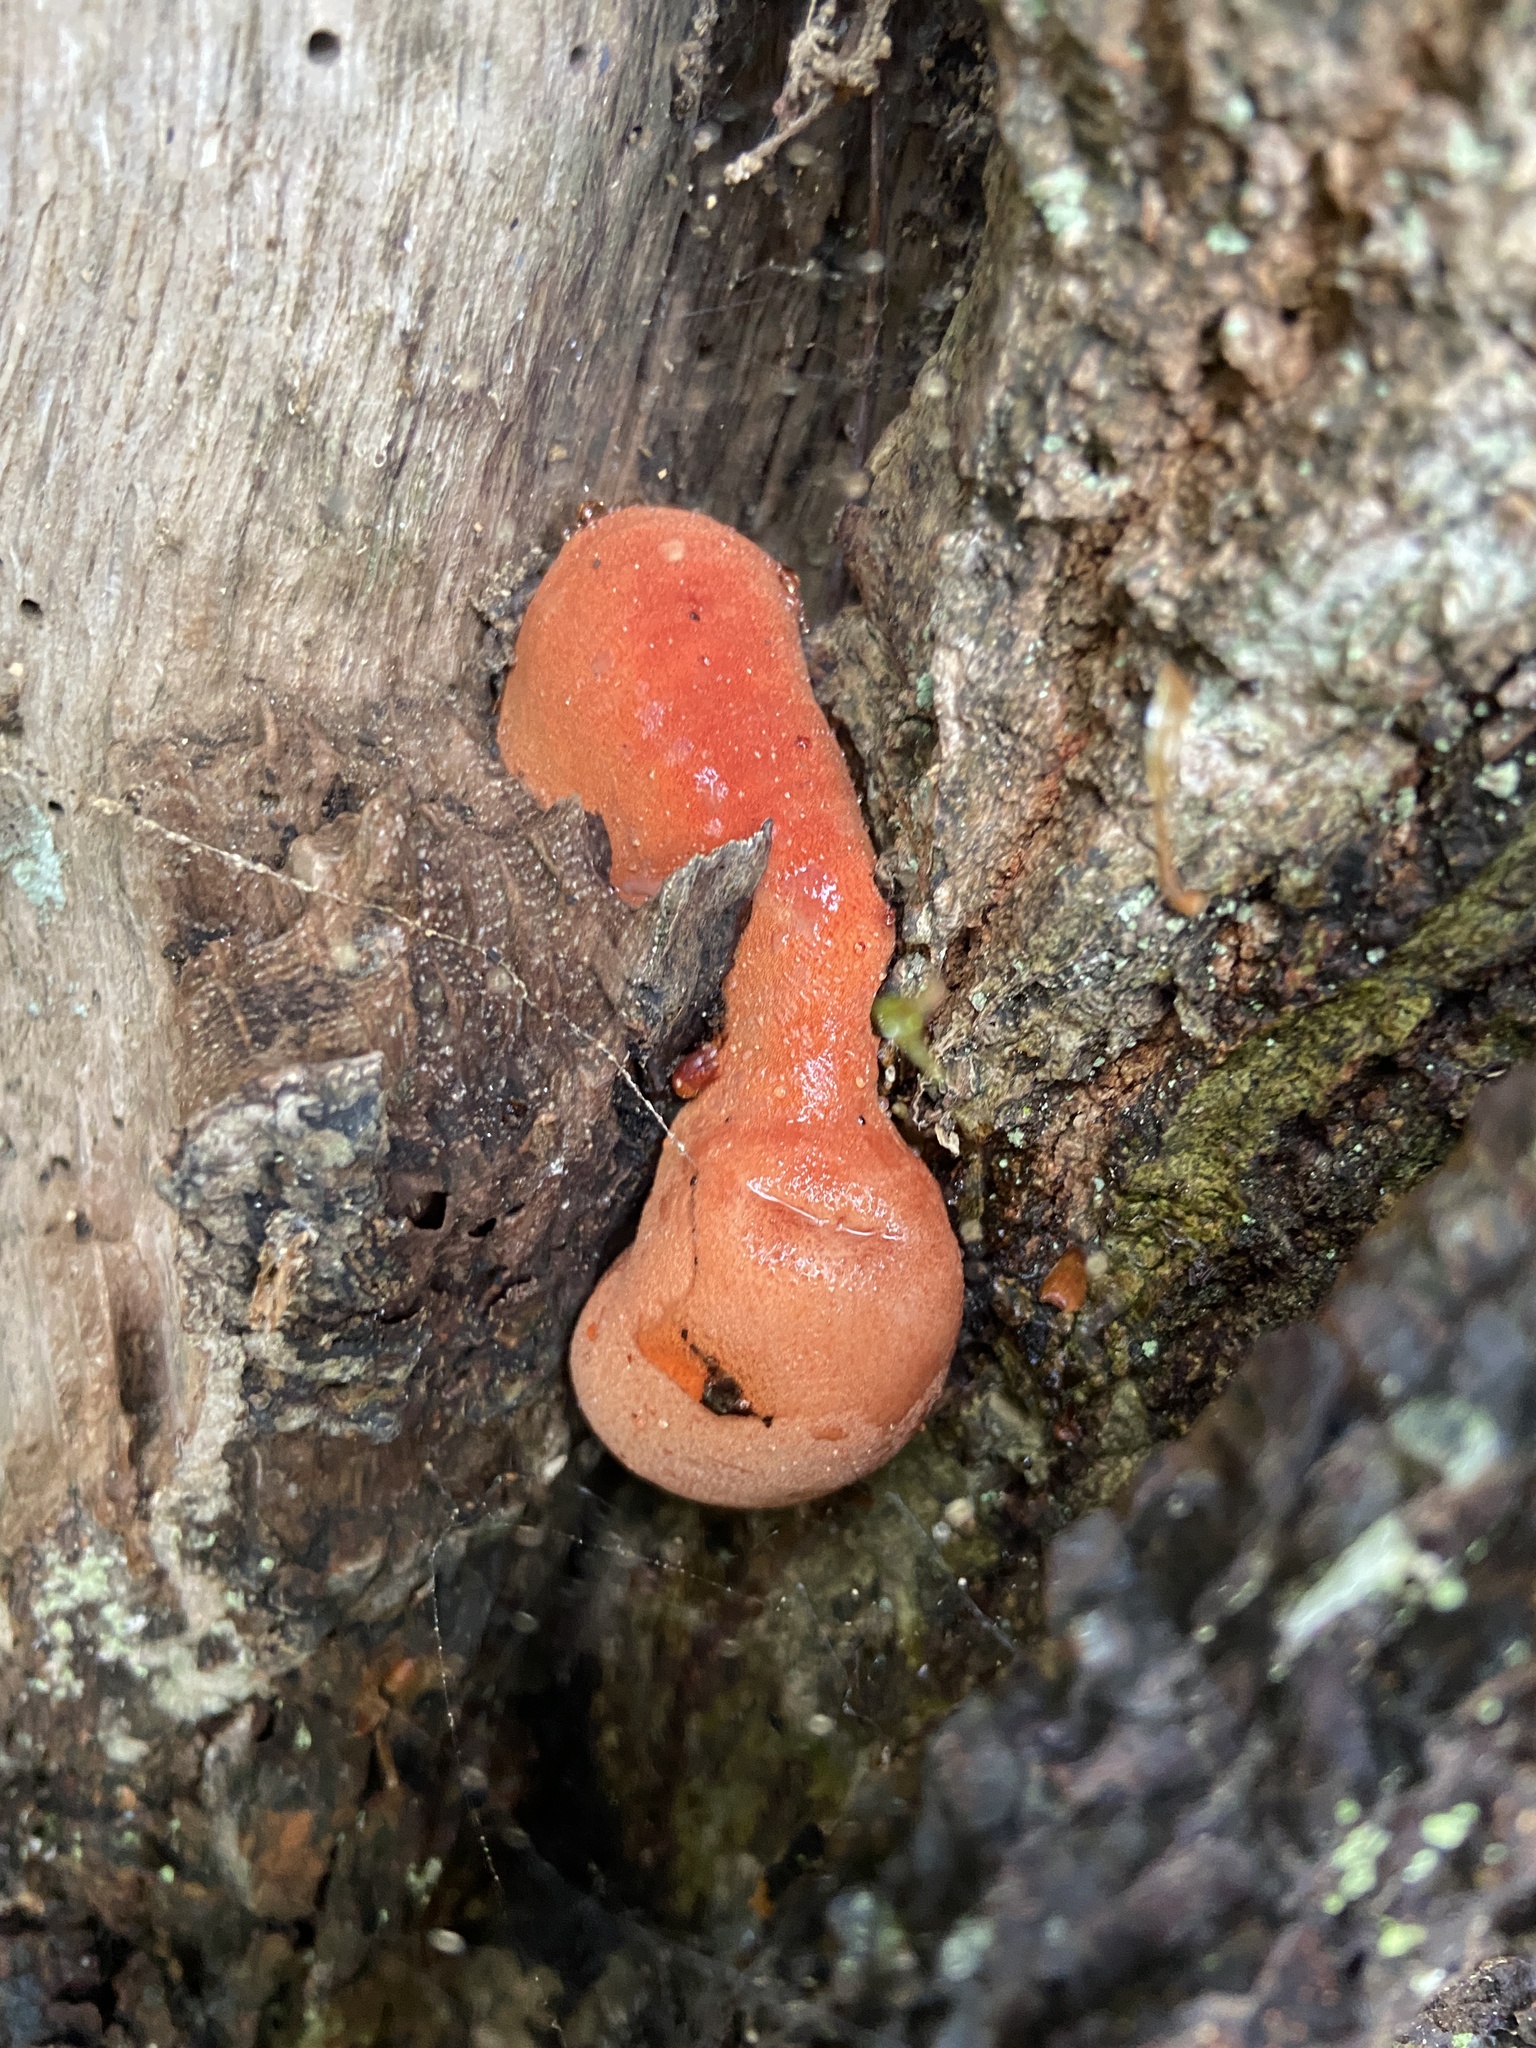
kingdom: Fungi
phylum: Basidiomycota
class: Agaricomycetes
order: Agaricales
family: Fistulinaceae
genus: Fistulina
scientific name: Fistulina hepatica
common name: Beef-steak fungus
